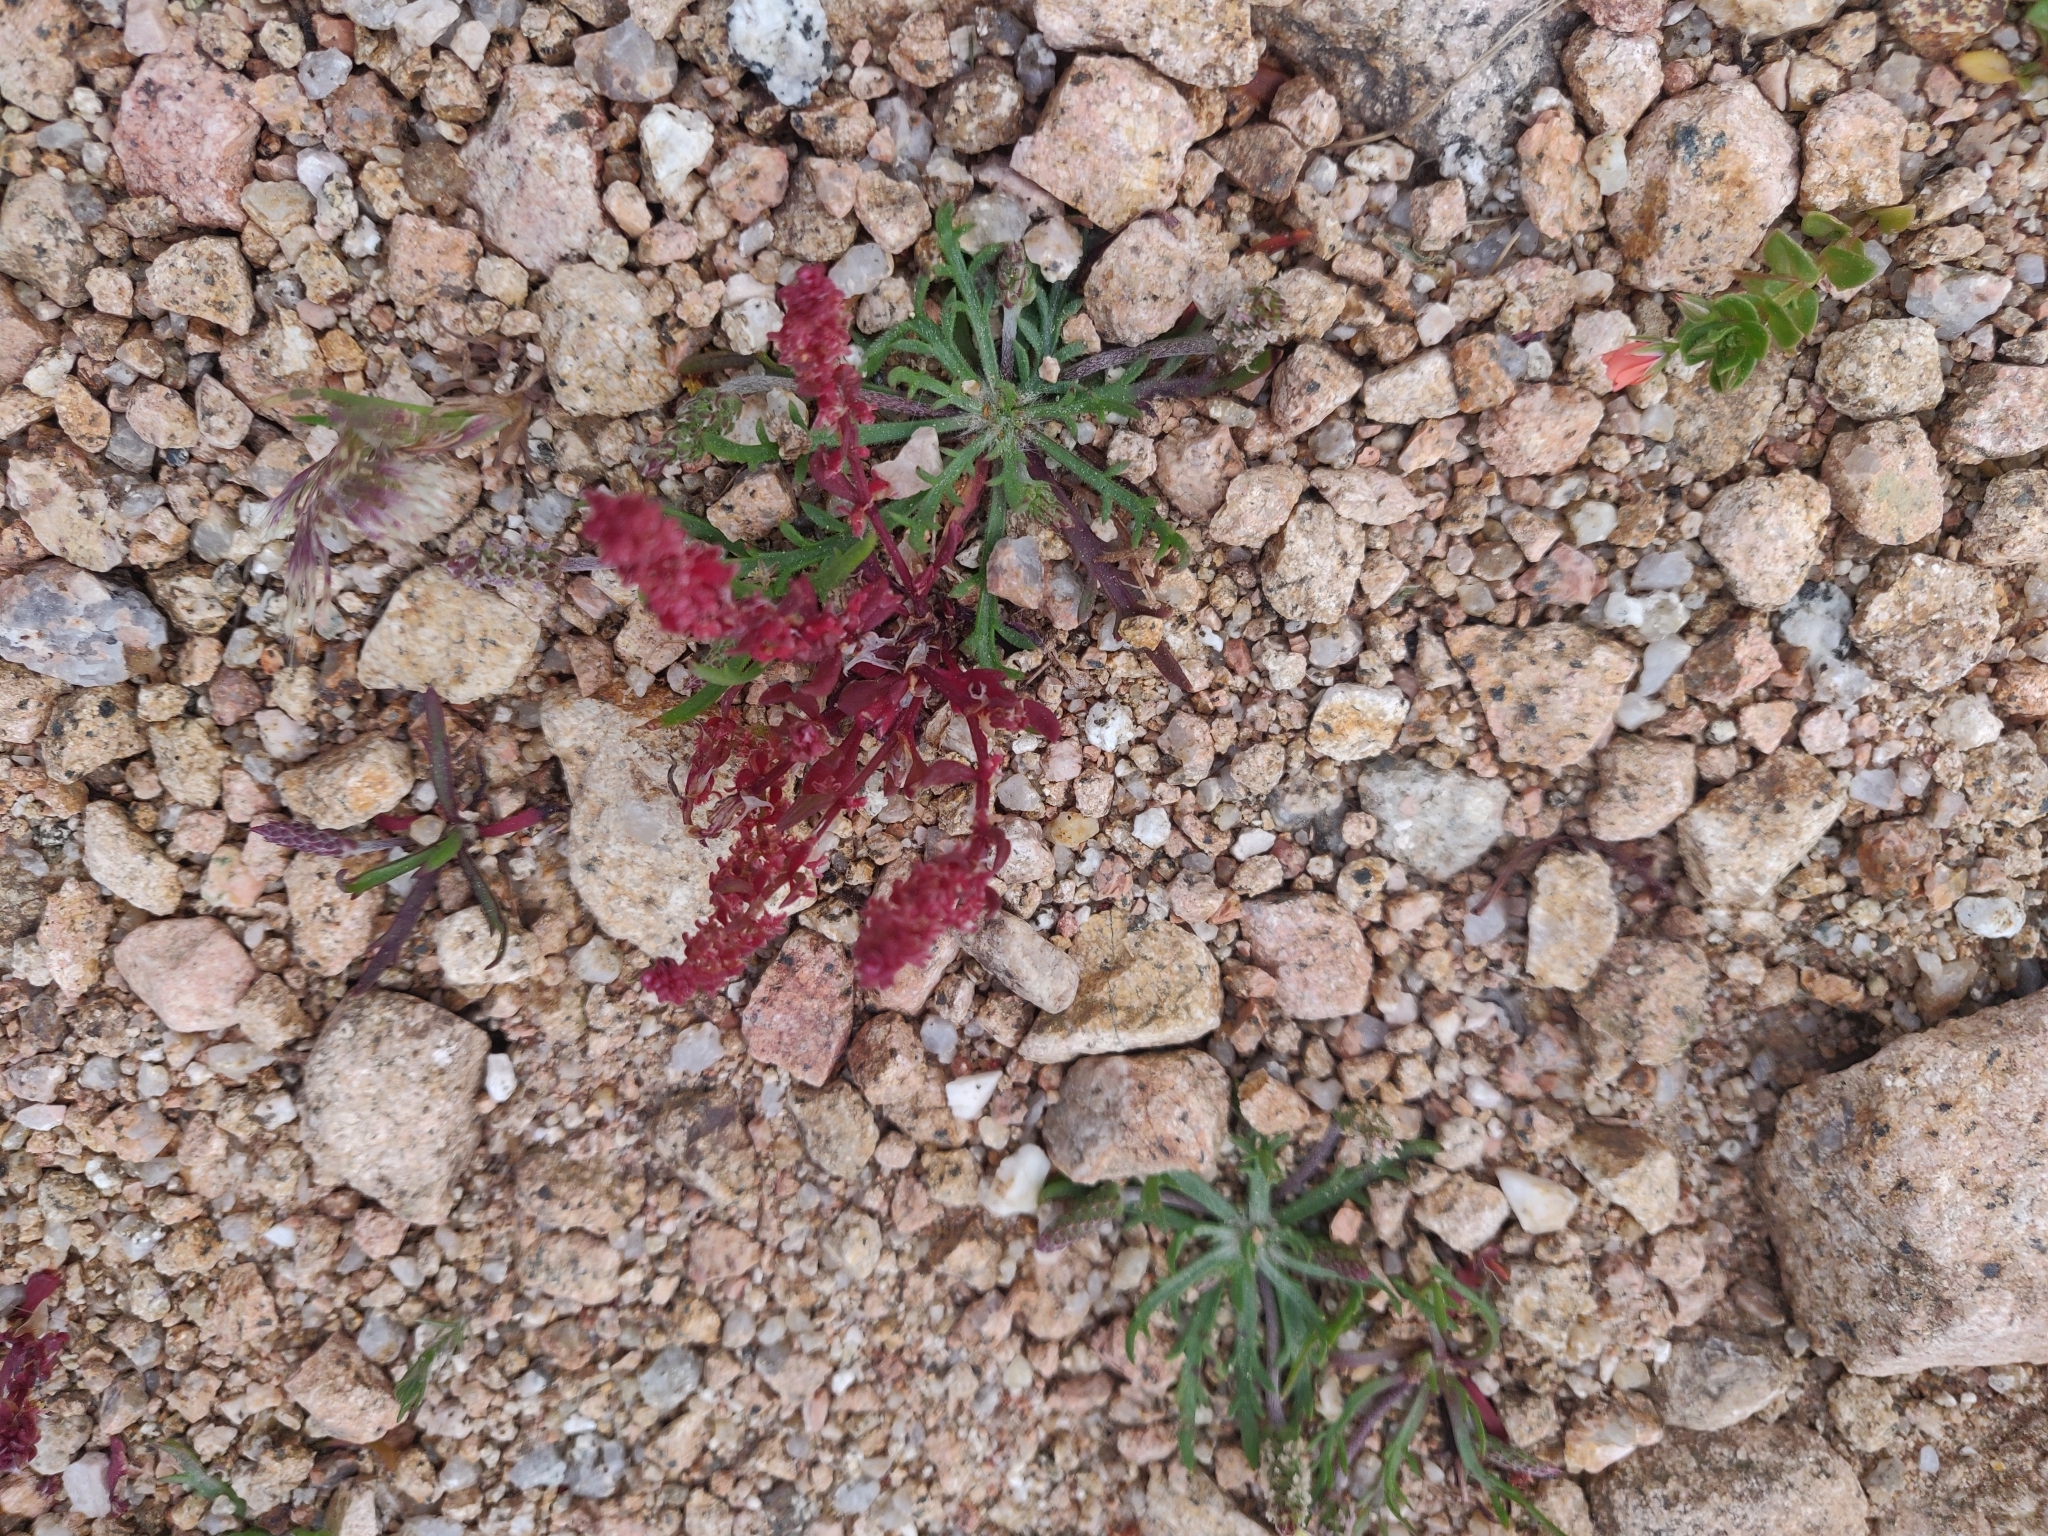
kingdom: Plantae
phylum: Tracheophyta
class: Magnoliopsida
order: Caryophyllales
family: Polygonaceae
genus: Rumex
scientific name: Rumex bucephalophorus
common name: Red dock
